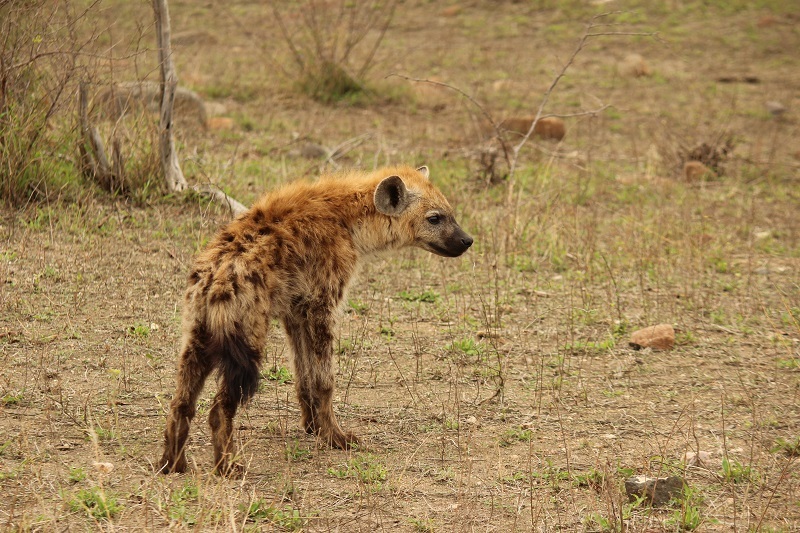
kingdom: Animalia
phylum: Chordata
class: Mammalia
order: Carnivora
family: Hyaenidae
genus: Crocuta
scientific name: Crocuta crocuta
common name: Spotted hyaena
